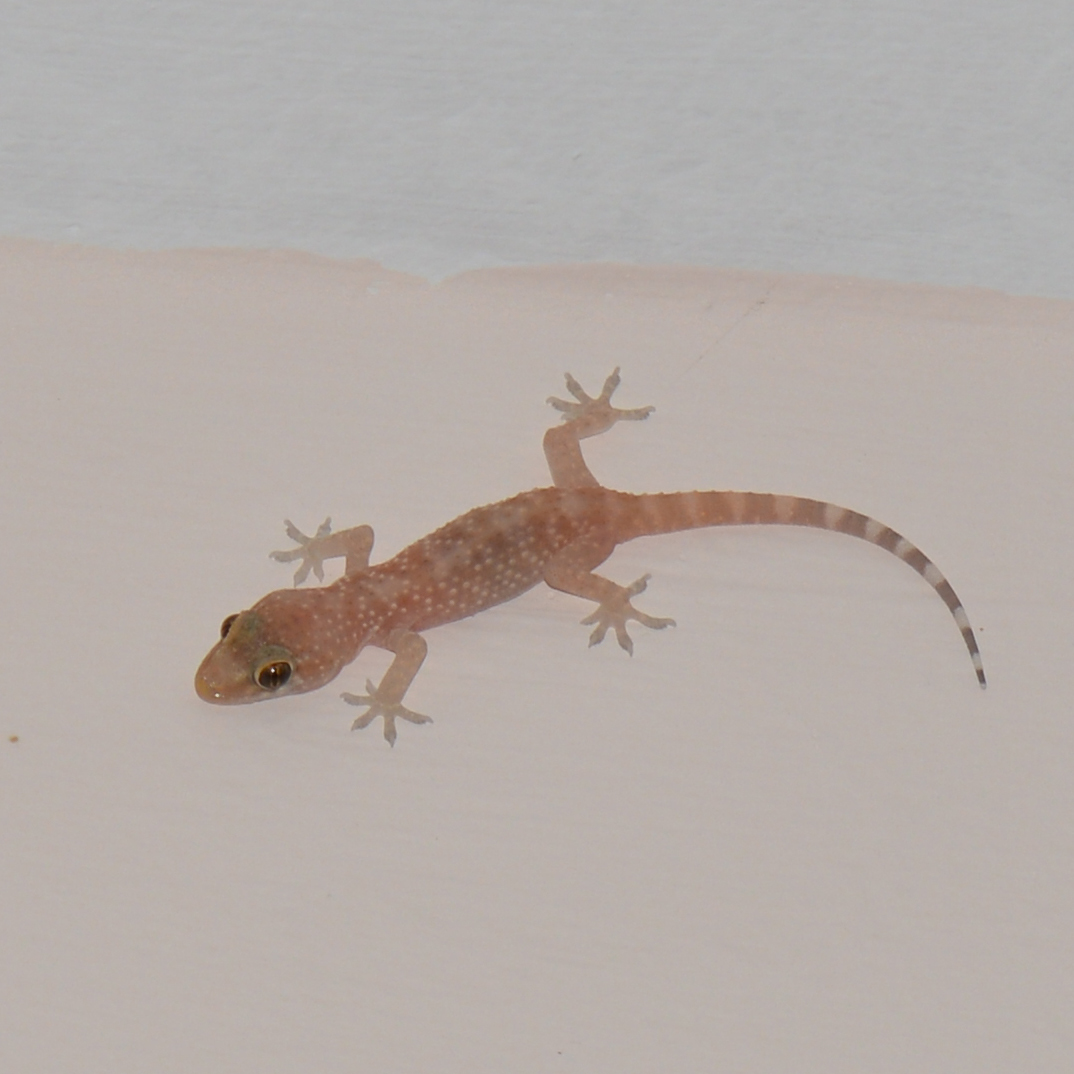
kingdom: Animalia
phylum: Chordata
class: Squamata
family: Gekkonidae
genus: Hemidactylus
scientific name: Hemidactylus turcicus
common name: Turkish gecko
